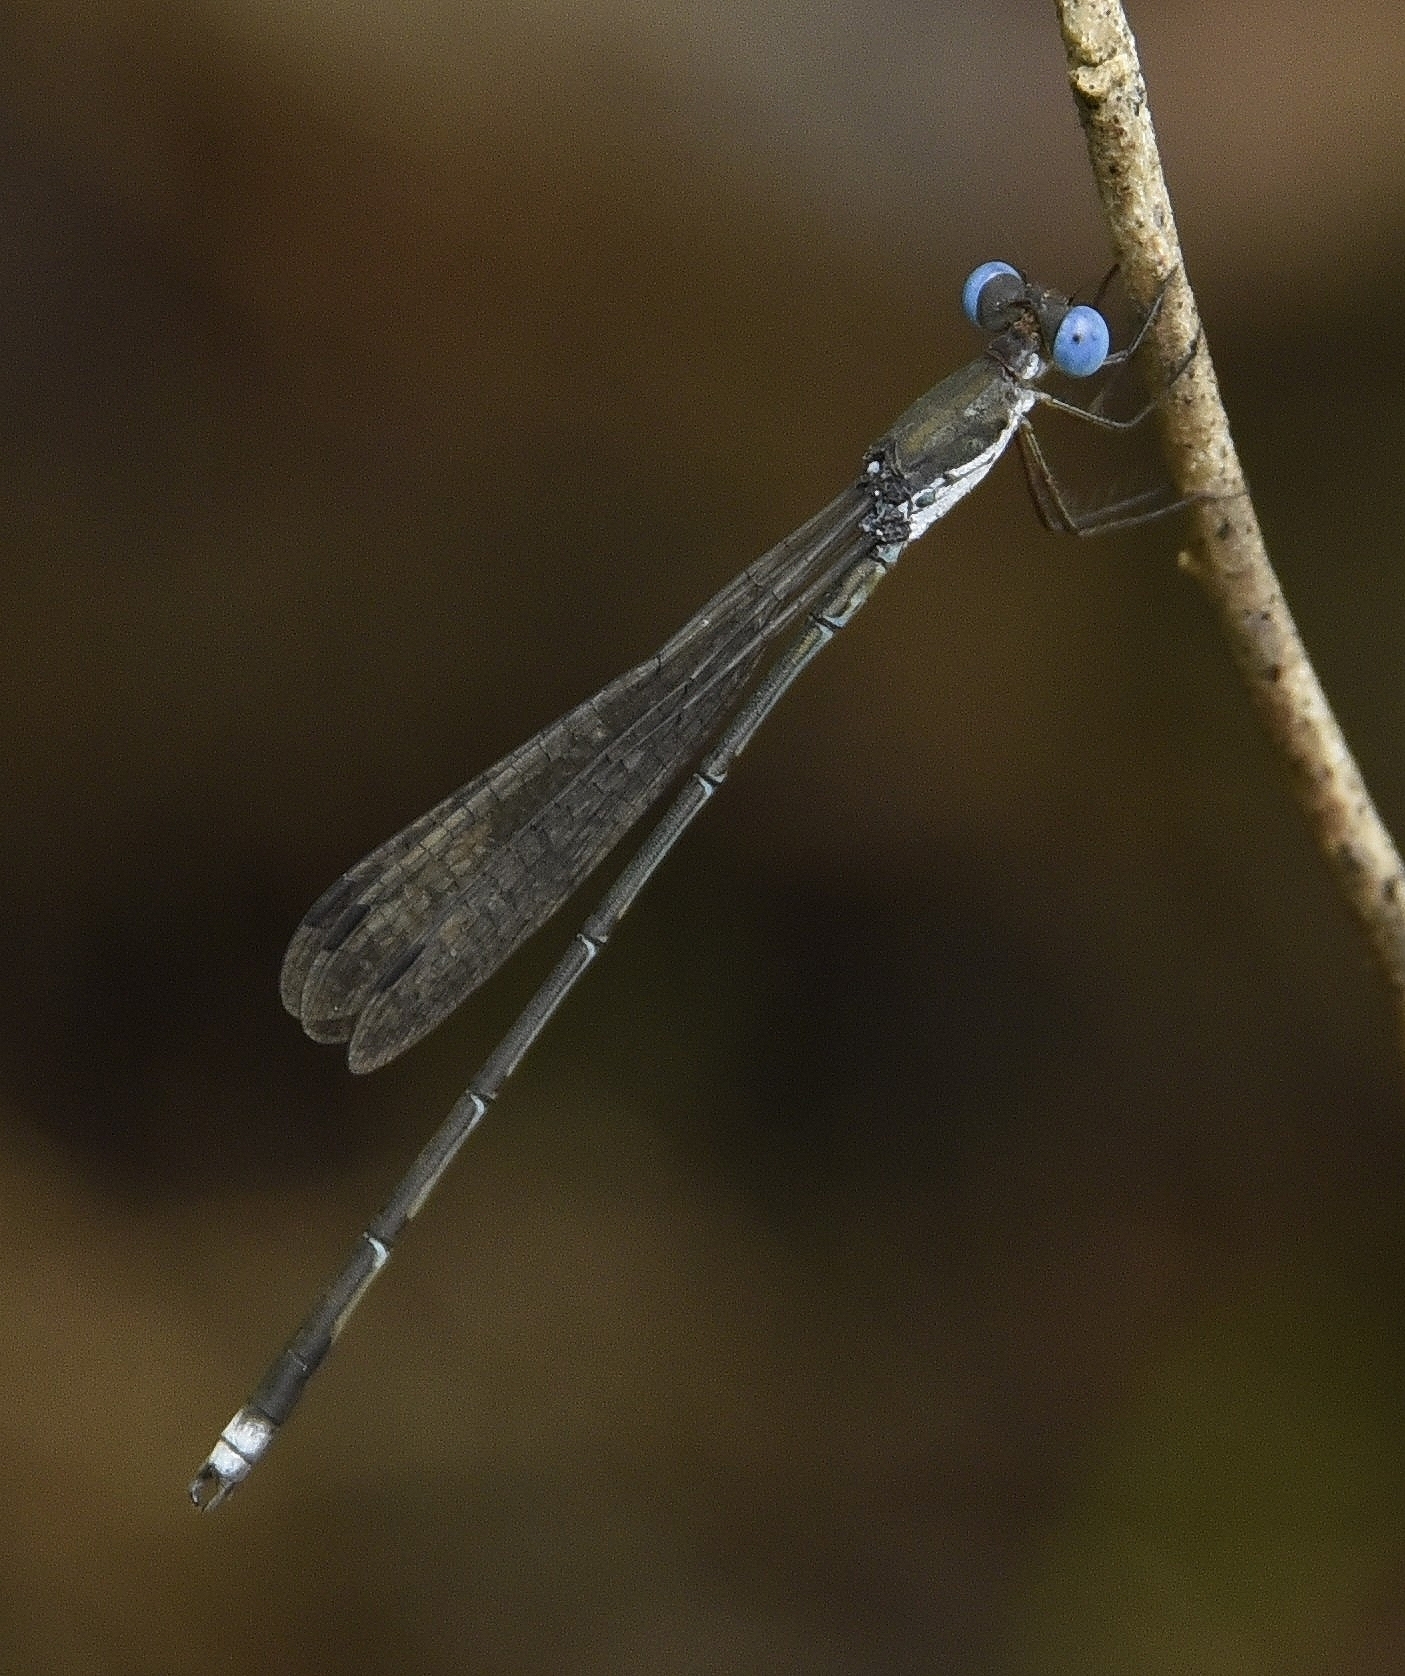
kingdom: Animalia
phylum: Arthropoda
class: Insecta
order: Odonata
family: Lestidae
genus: Lestes
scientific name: Lestes malabaricus
